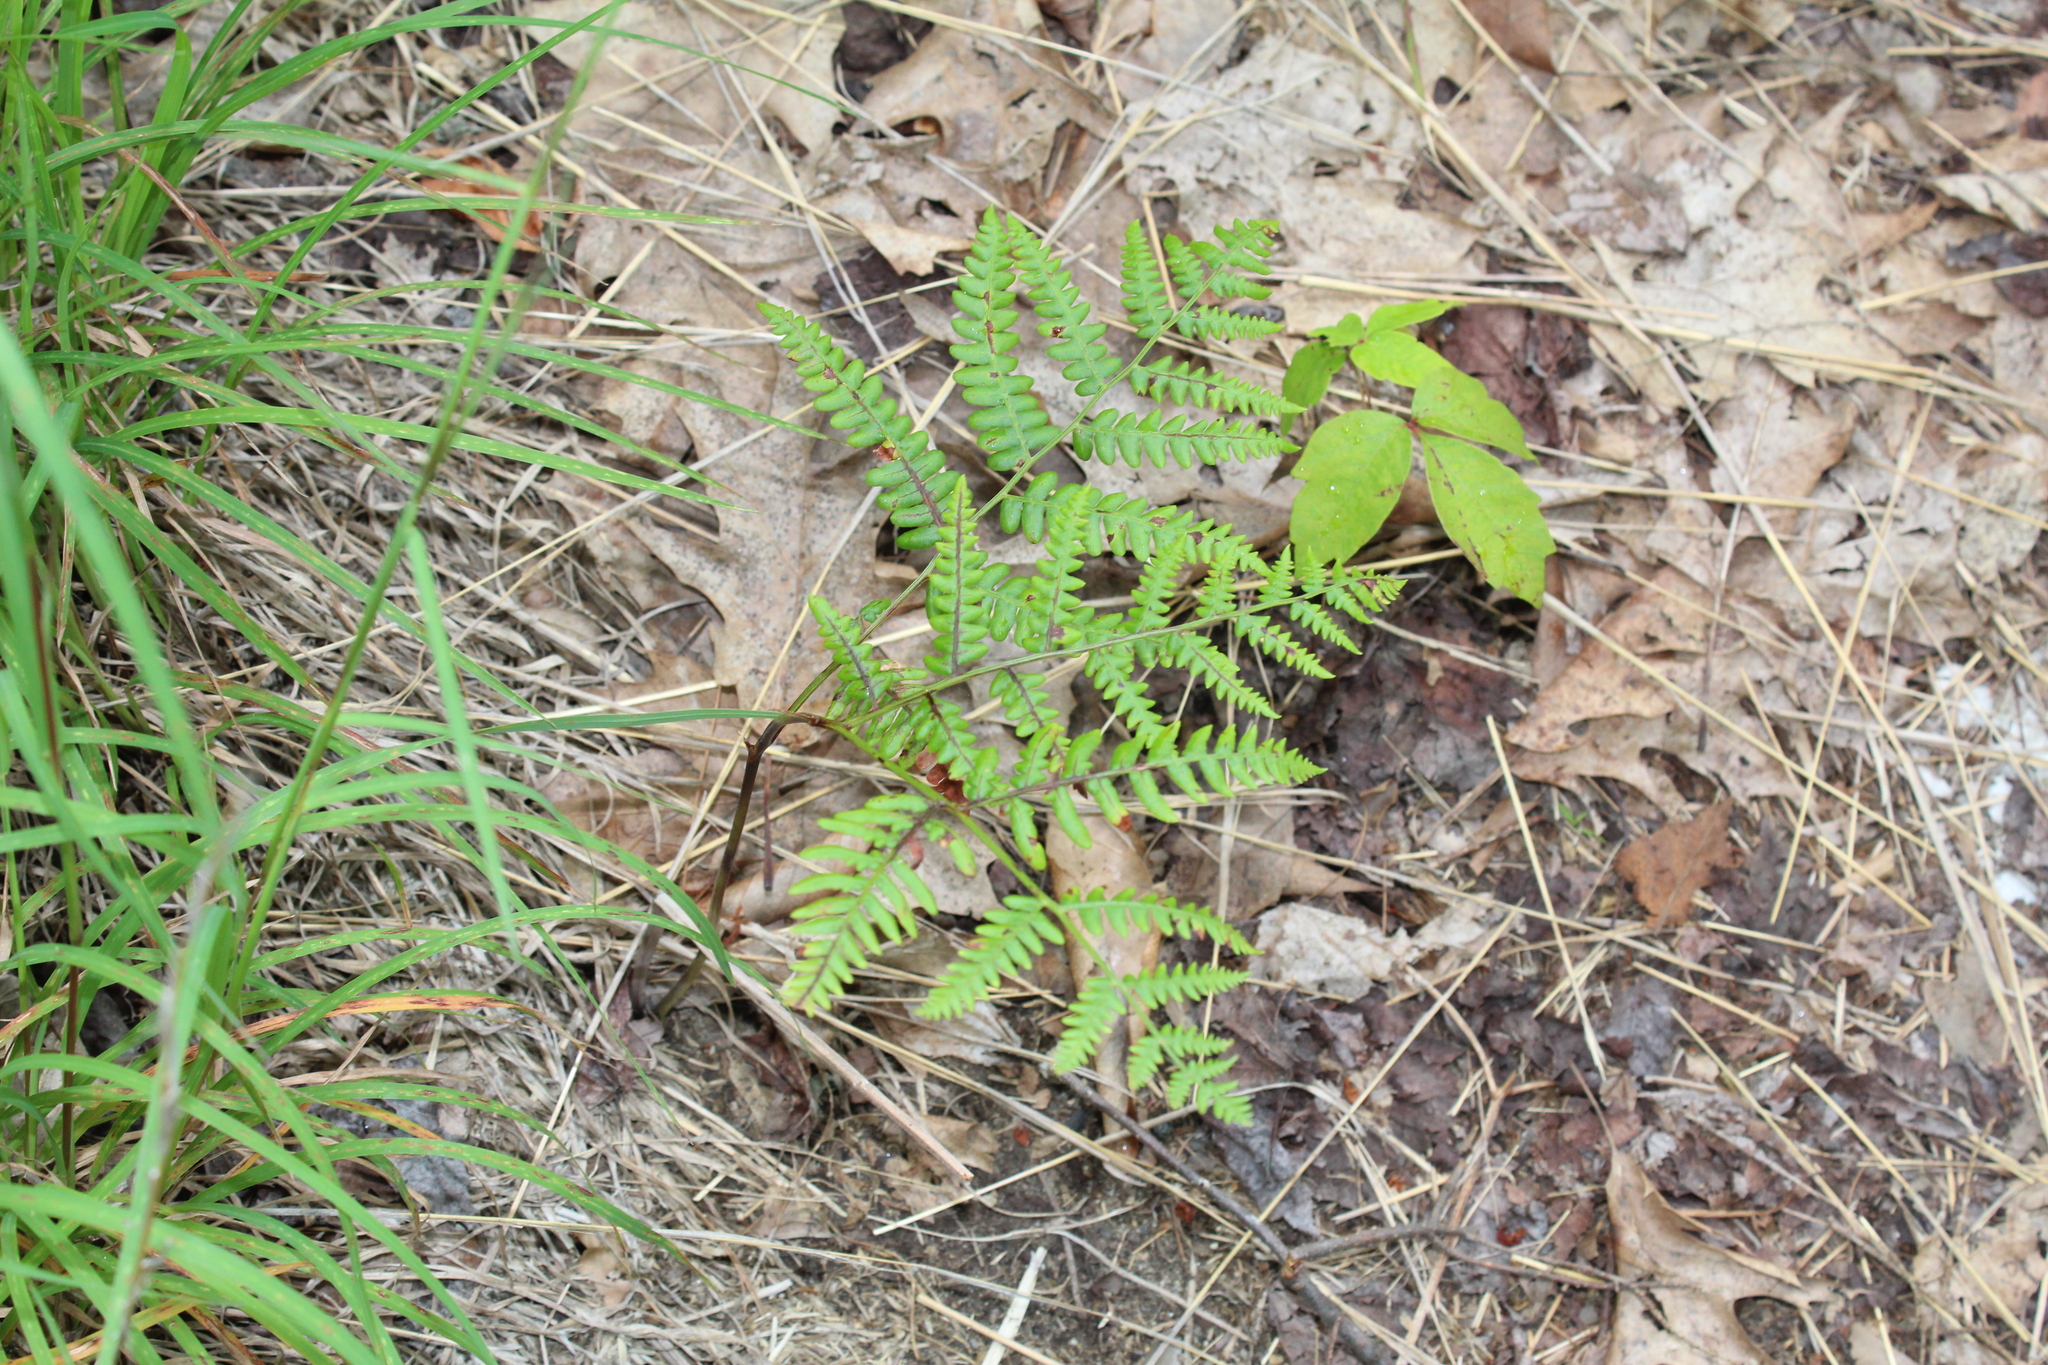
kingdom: Plantae
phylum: Tracheophyta
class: Polypodiopsida
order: Polypodiales
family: Dennstaedtiaceae
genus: Pteridium
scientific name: Pteridium aquilinum
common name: Bracken
